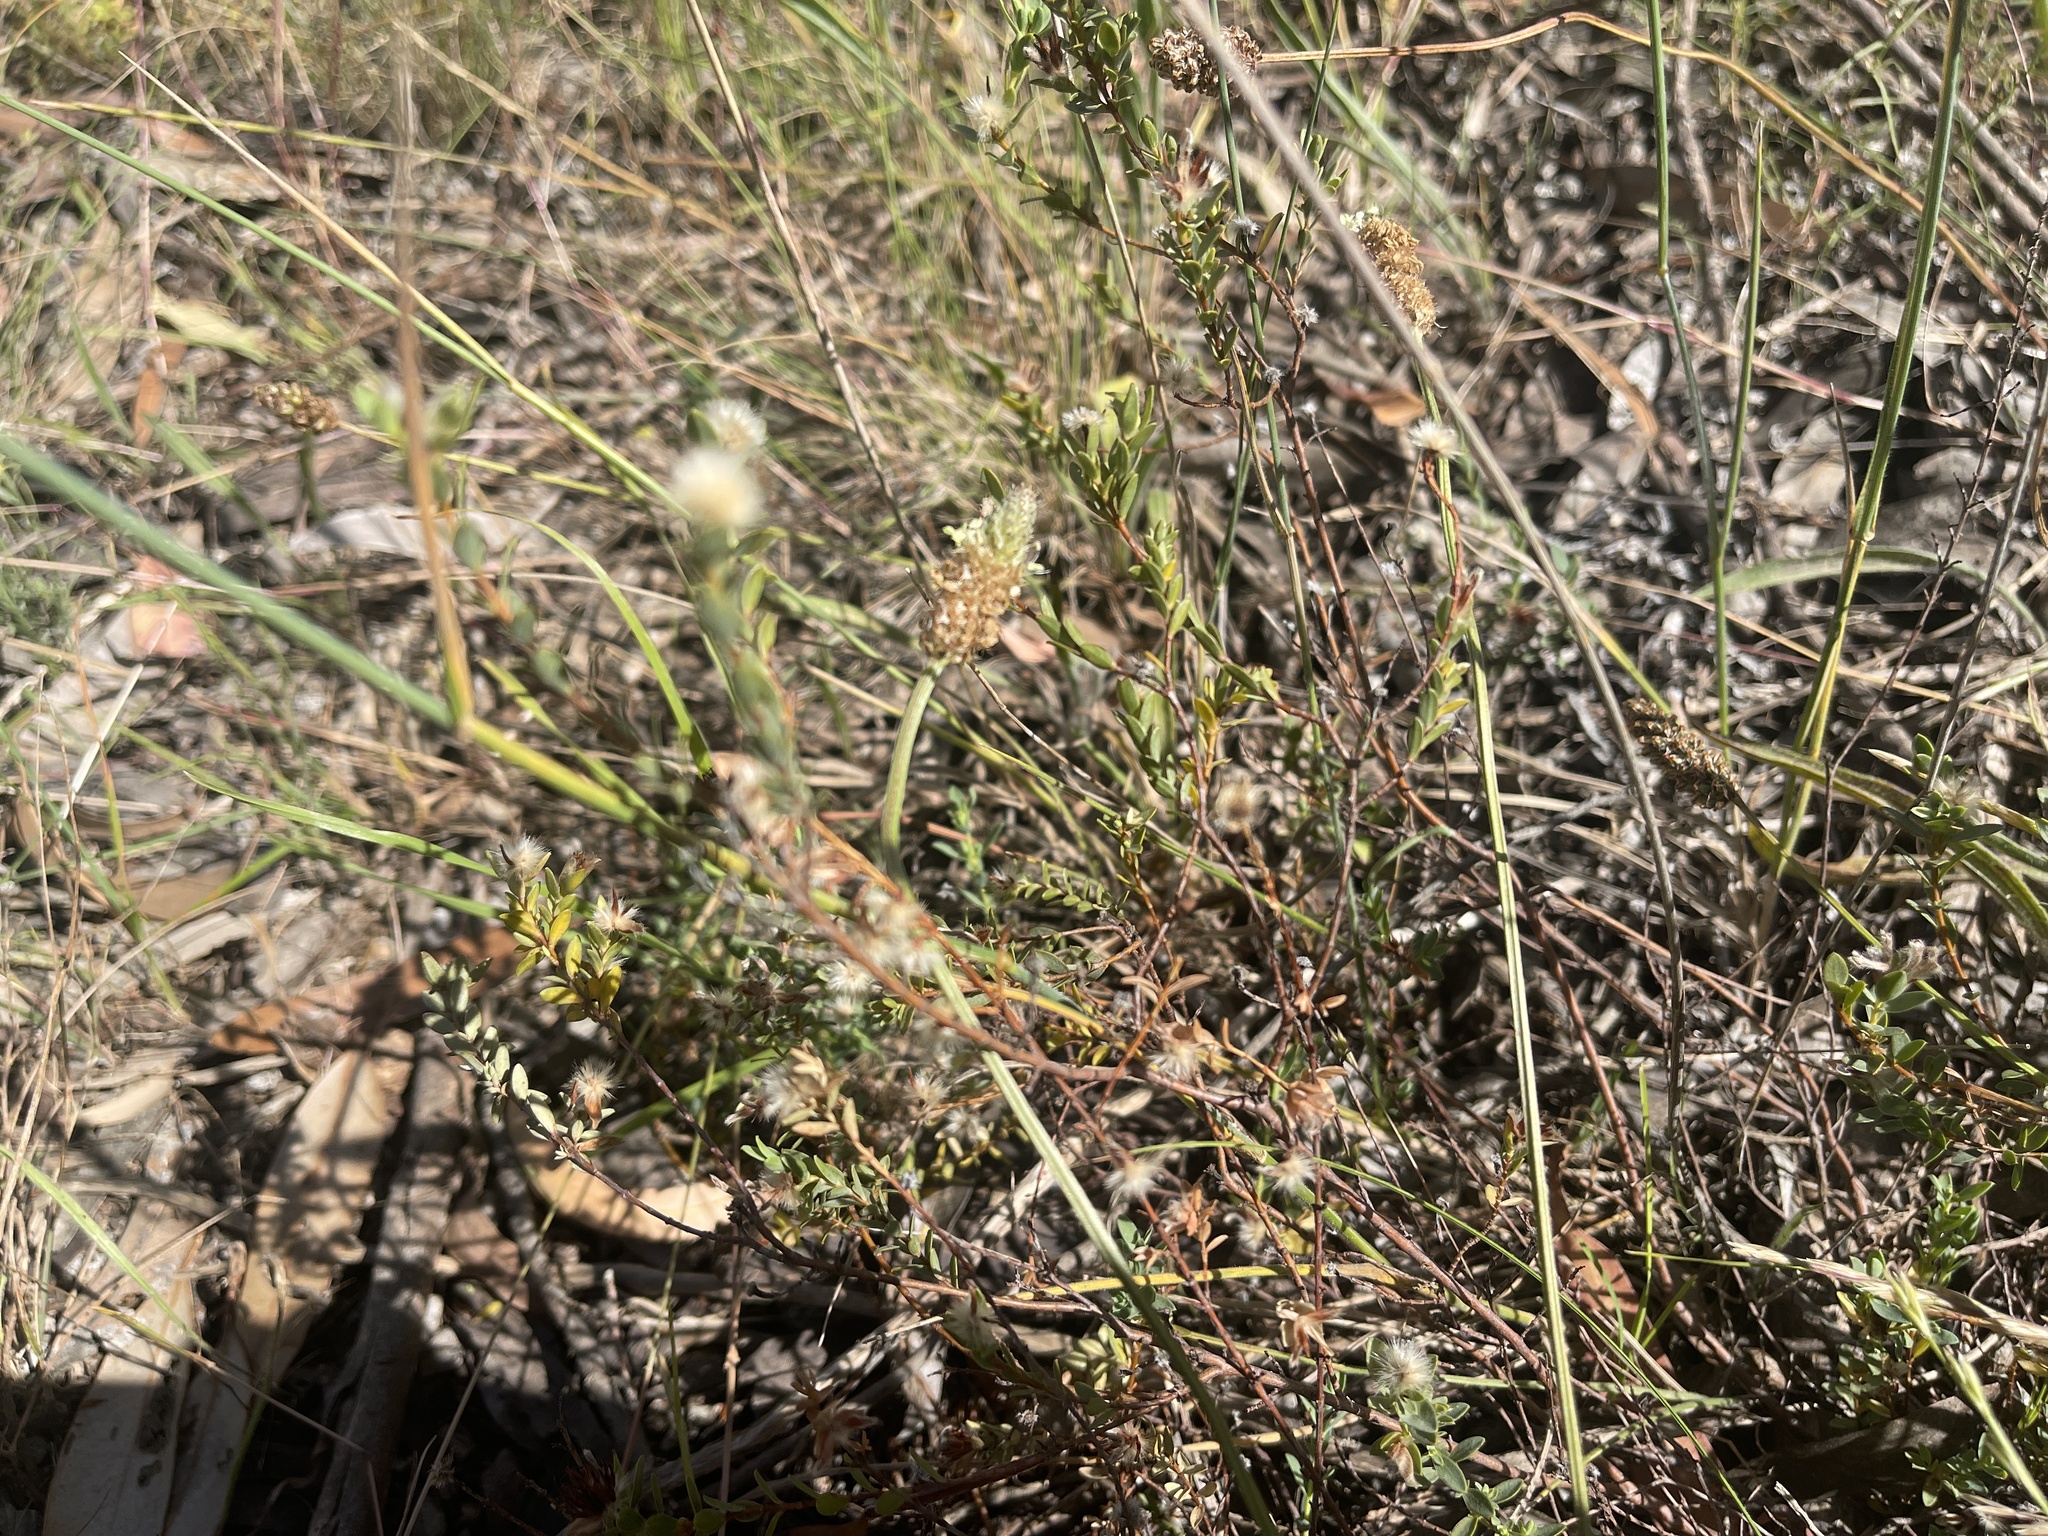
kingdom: Plantae
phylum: Tracheophyta
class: Magnoliopsida
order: Malvales
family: Thymelaeaceae
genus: Pimelea
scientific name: Pimelea glauca
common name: Smooth riceflower
